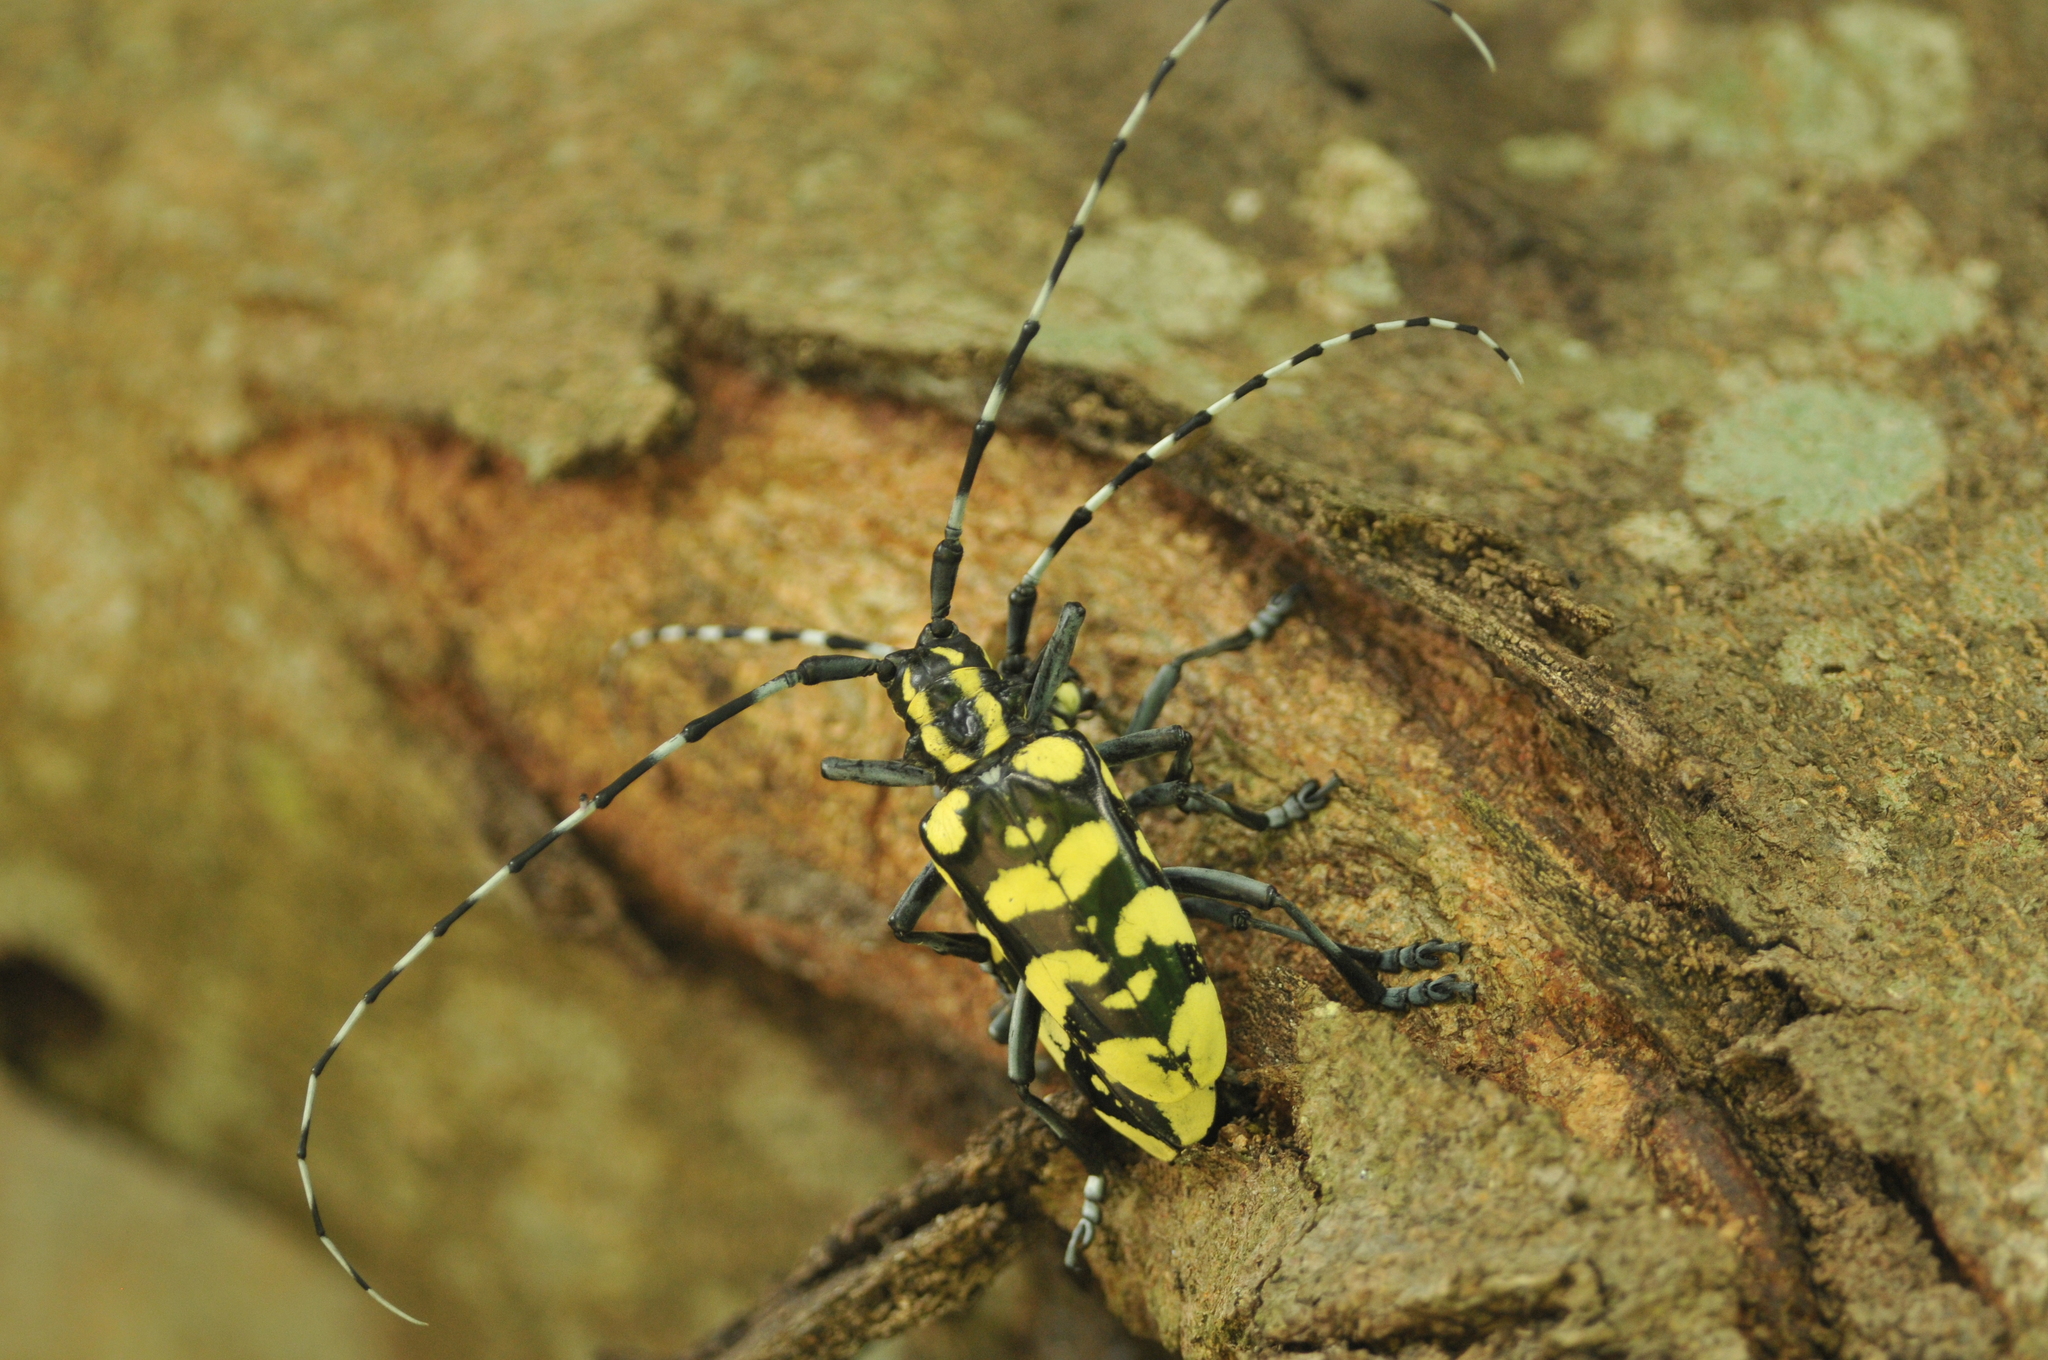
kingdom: Animalia
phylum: Arthropoda
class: Insecta
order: Coleoptera
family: Cerambycidae
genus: Anoplophora
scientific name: Anoplophora horsfieldii
